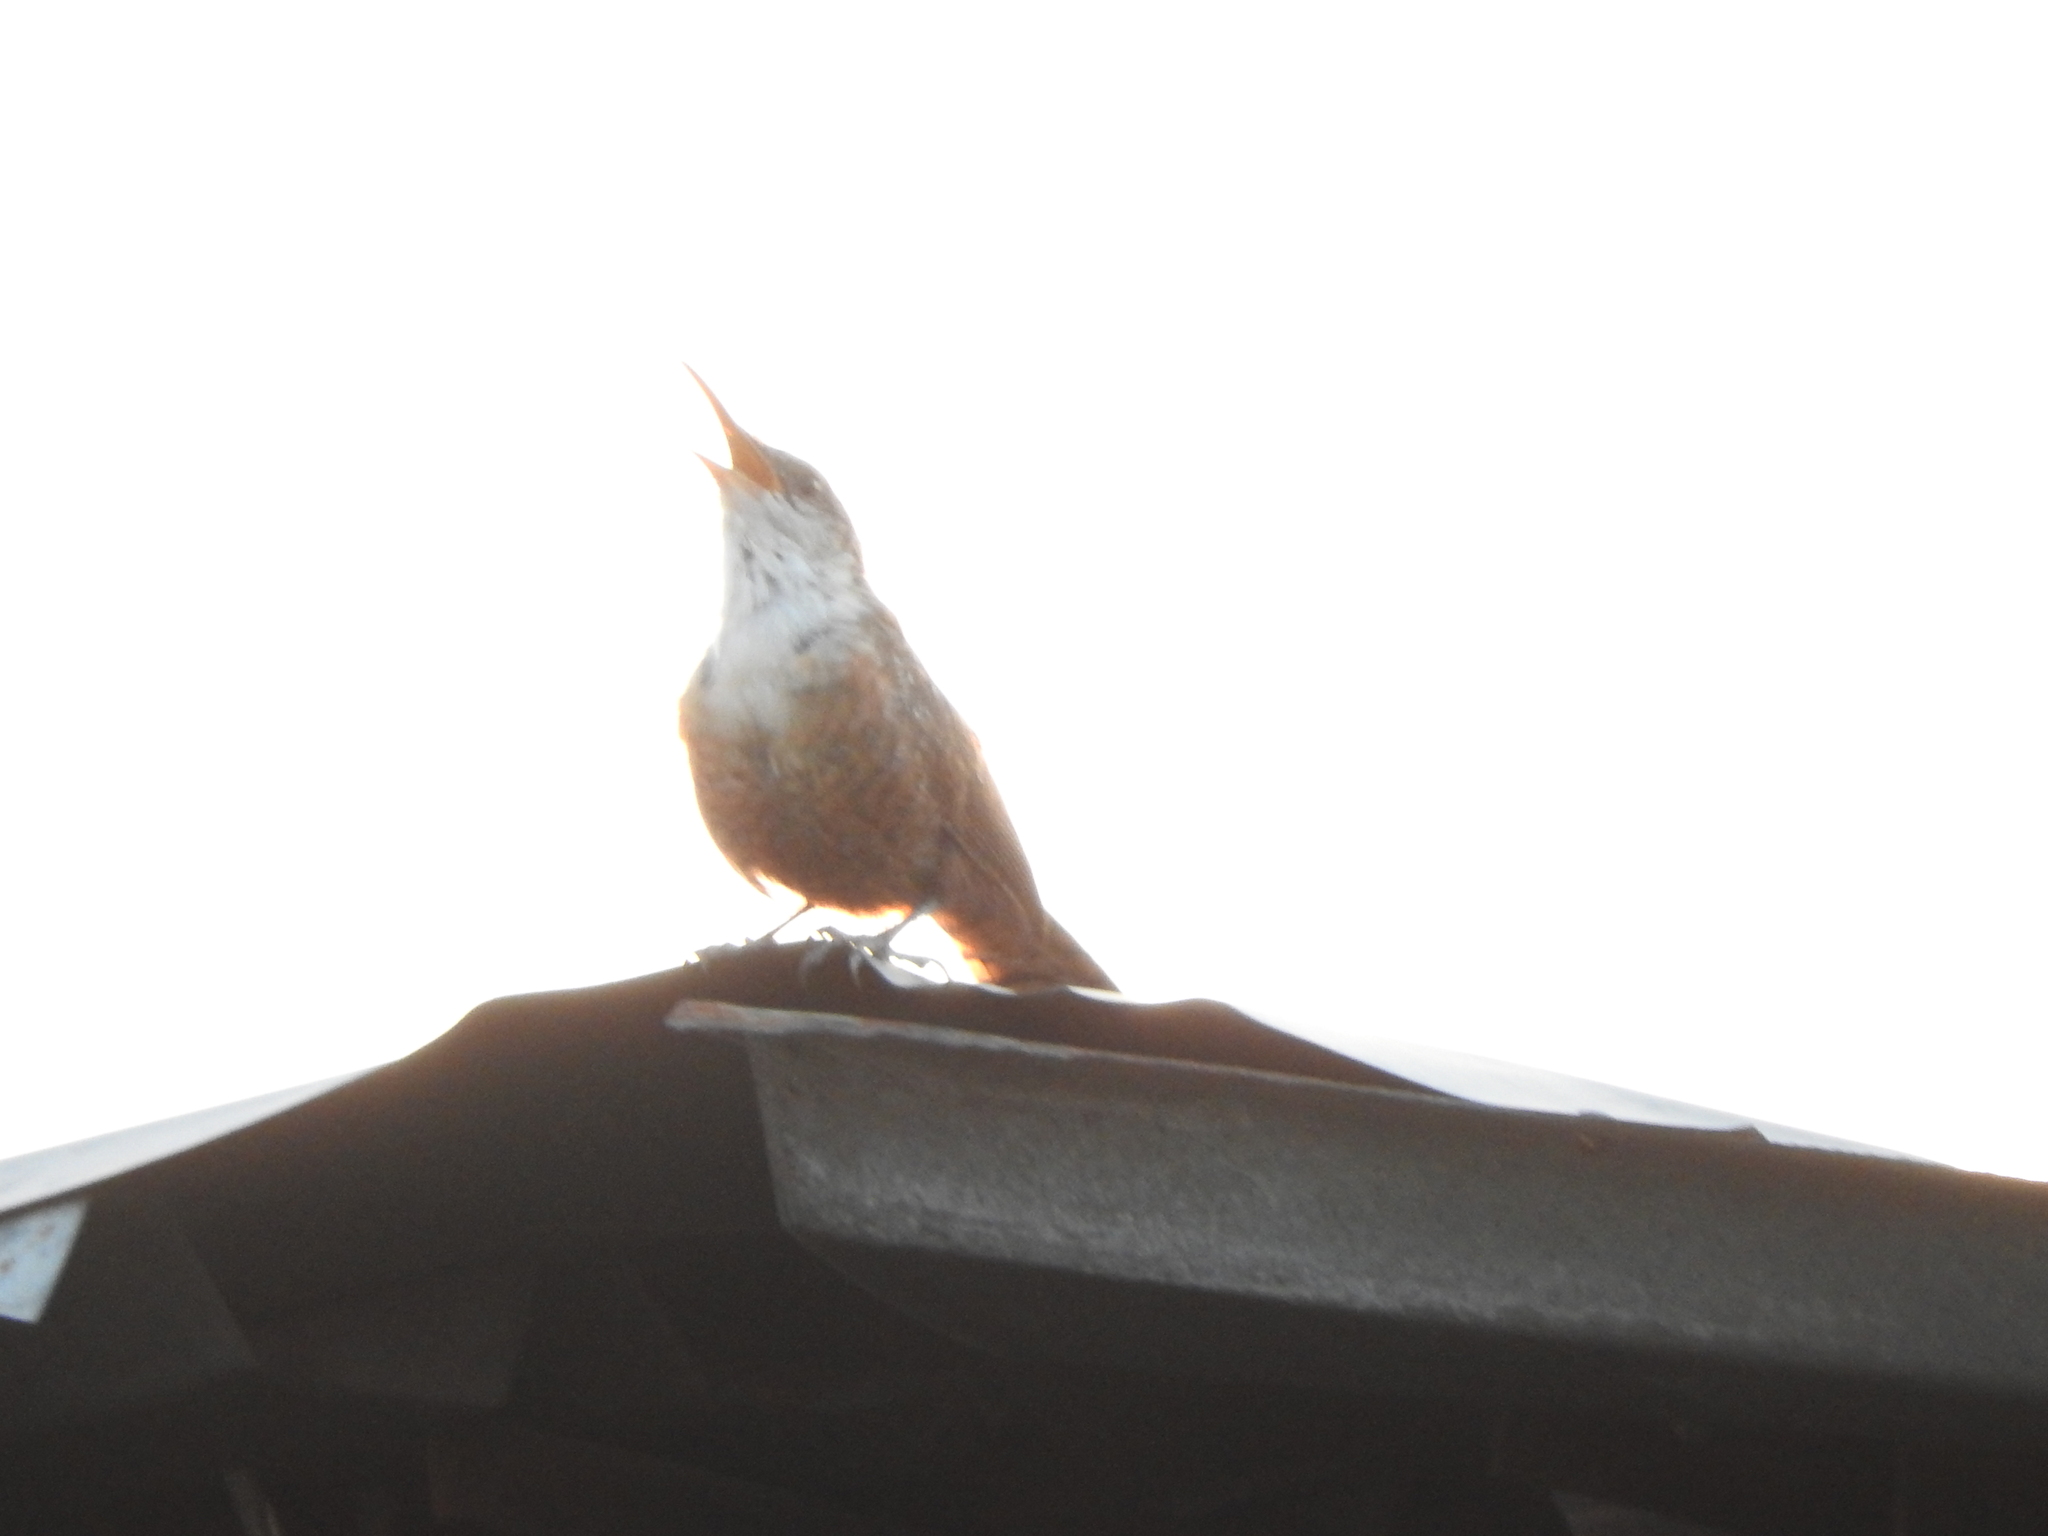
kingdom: Animalia
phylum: Chordata
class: Aves
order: Passeriformes
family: Troglodytidae
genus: Catherpes
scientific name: Catherpes mexicanus
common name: Canyon wren
